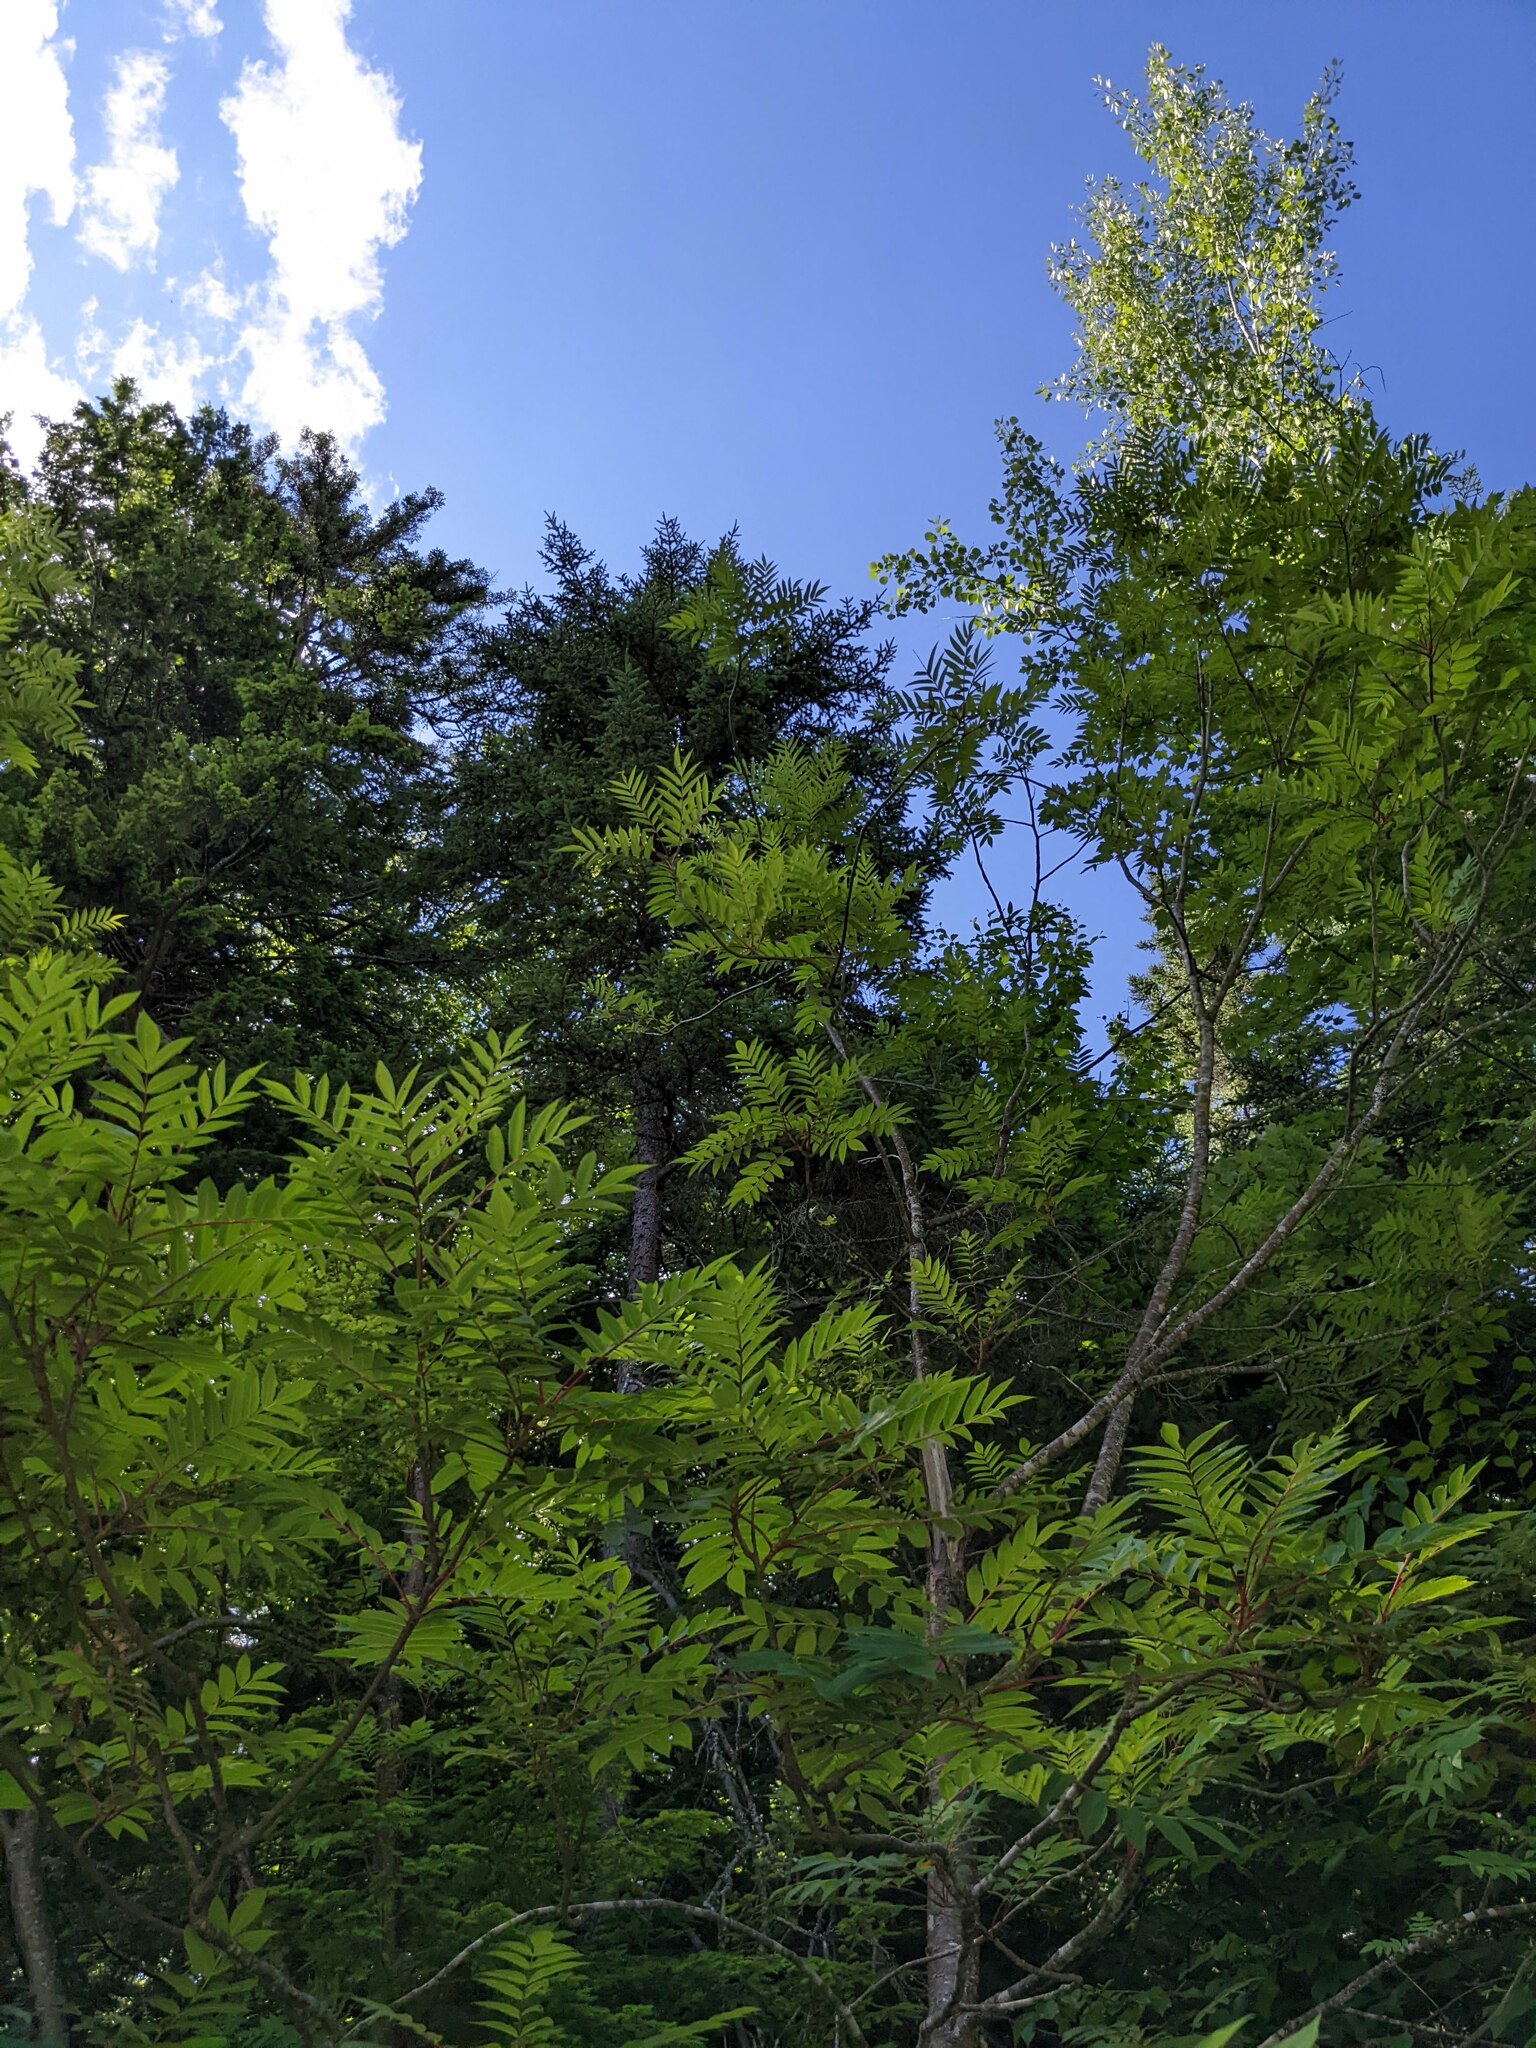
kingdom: Plantae
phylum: Tracheophyta
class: Magnoliopsida
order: Sapindales
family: Anacardiaceae
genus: Rhus
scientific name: Rhus glabra
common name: Scarlet sumac
